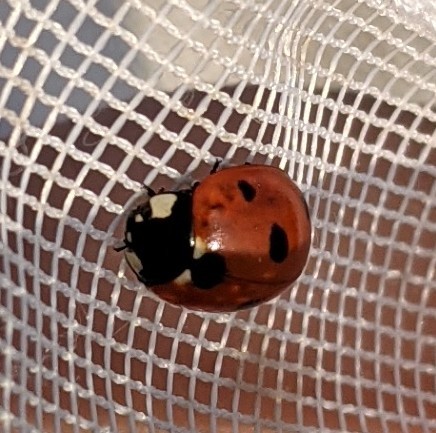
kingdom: Animalia
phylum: Arthropoda
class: Insecta
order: Coleoptera
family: Coccinellidae
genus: Coccinella
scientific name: Coccinella septempunctata
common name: Sevenspotted lady beetle
